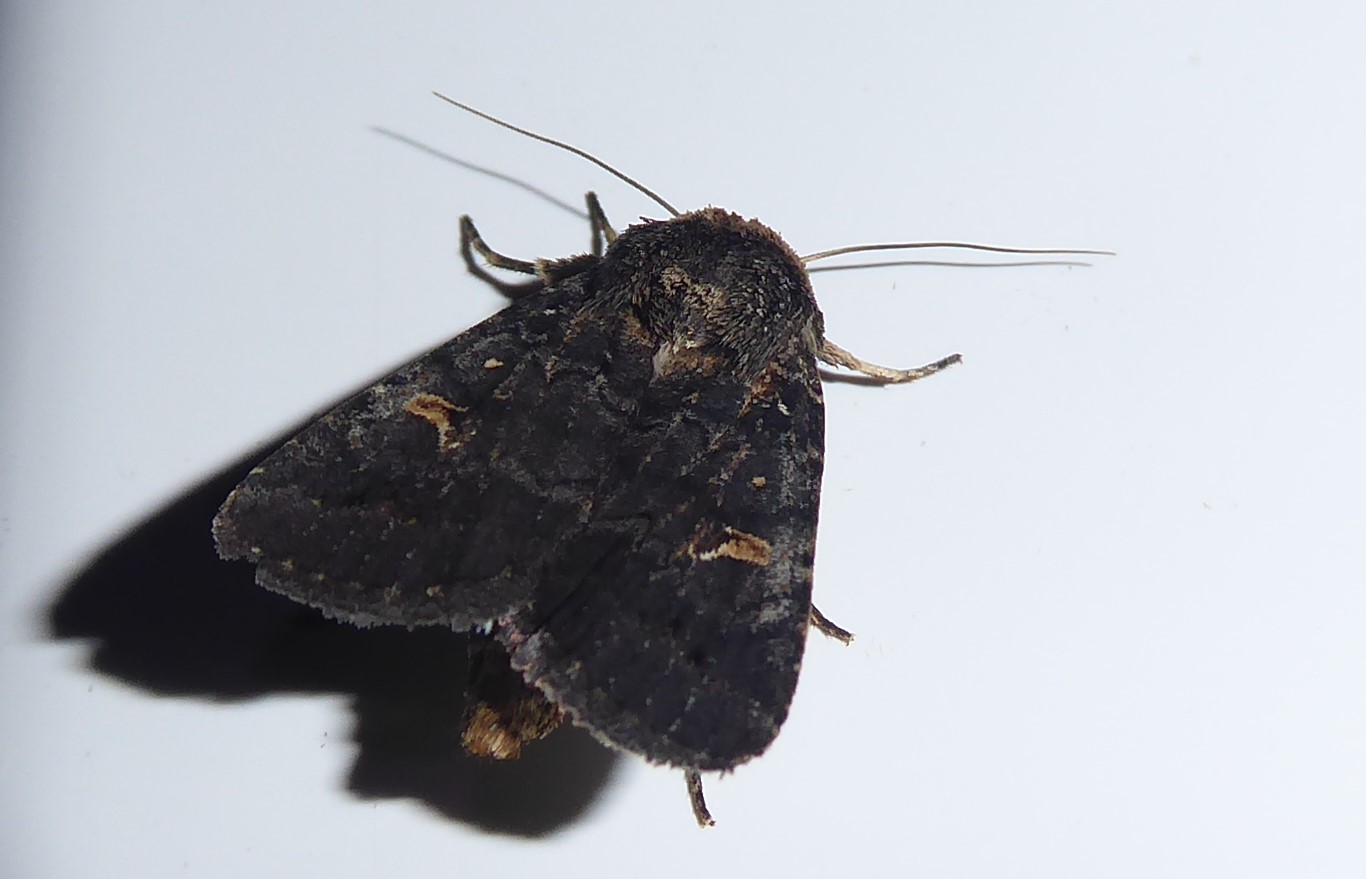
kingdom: Animalia
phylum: Arthropoda
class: Insecta
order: Lepidoptera
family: Noctuidae
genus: Proteuxoa
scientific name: Proteuxoa tetronycha
